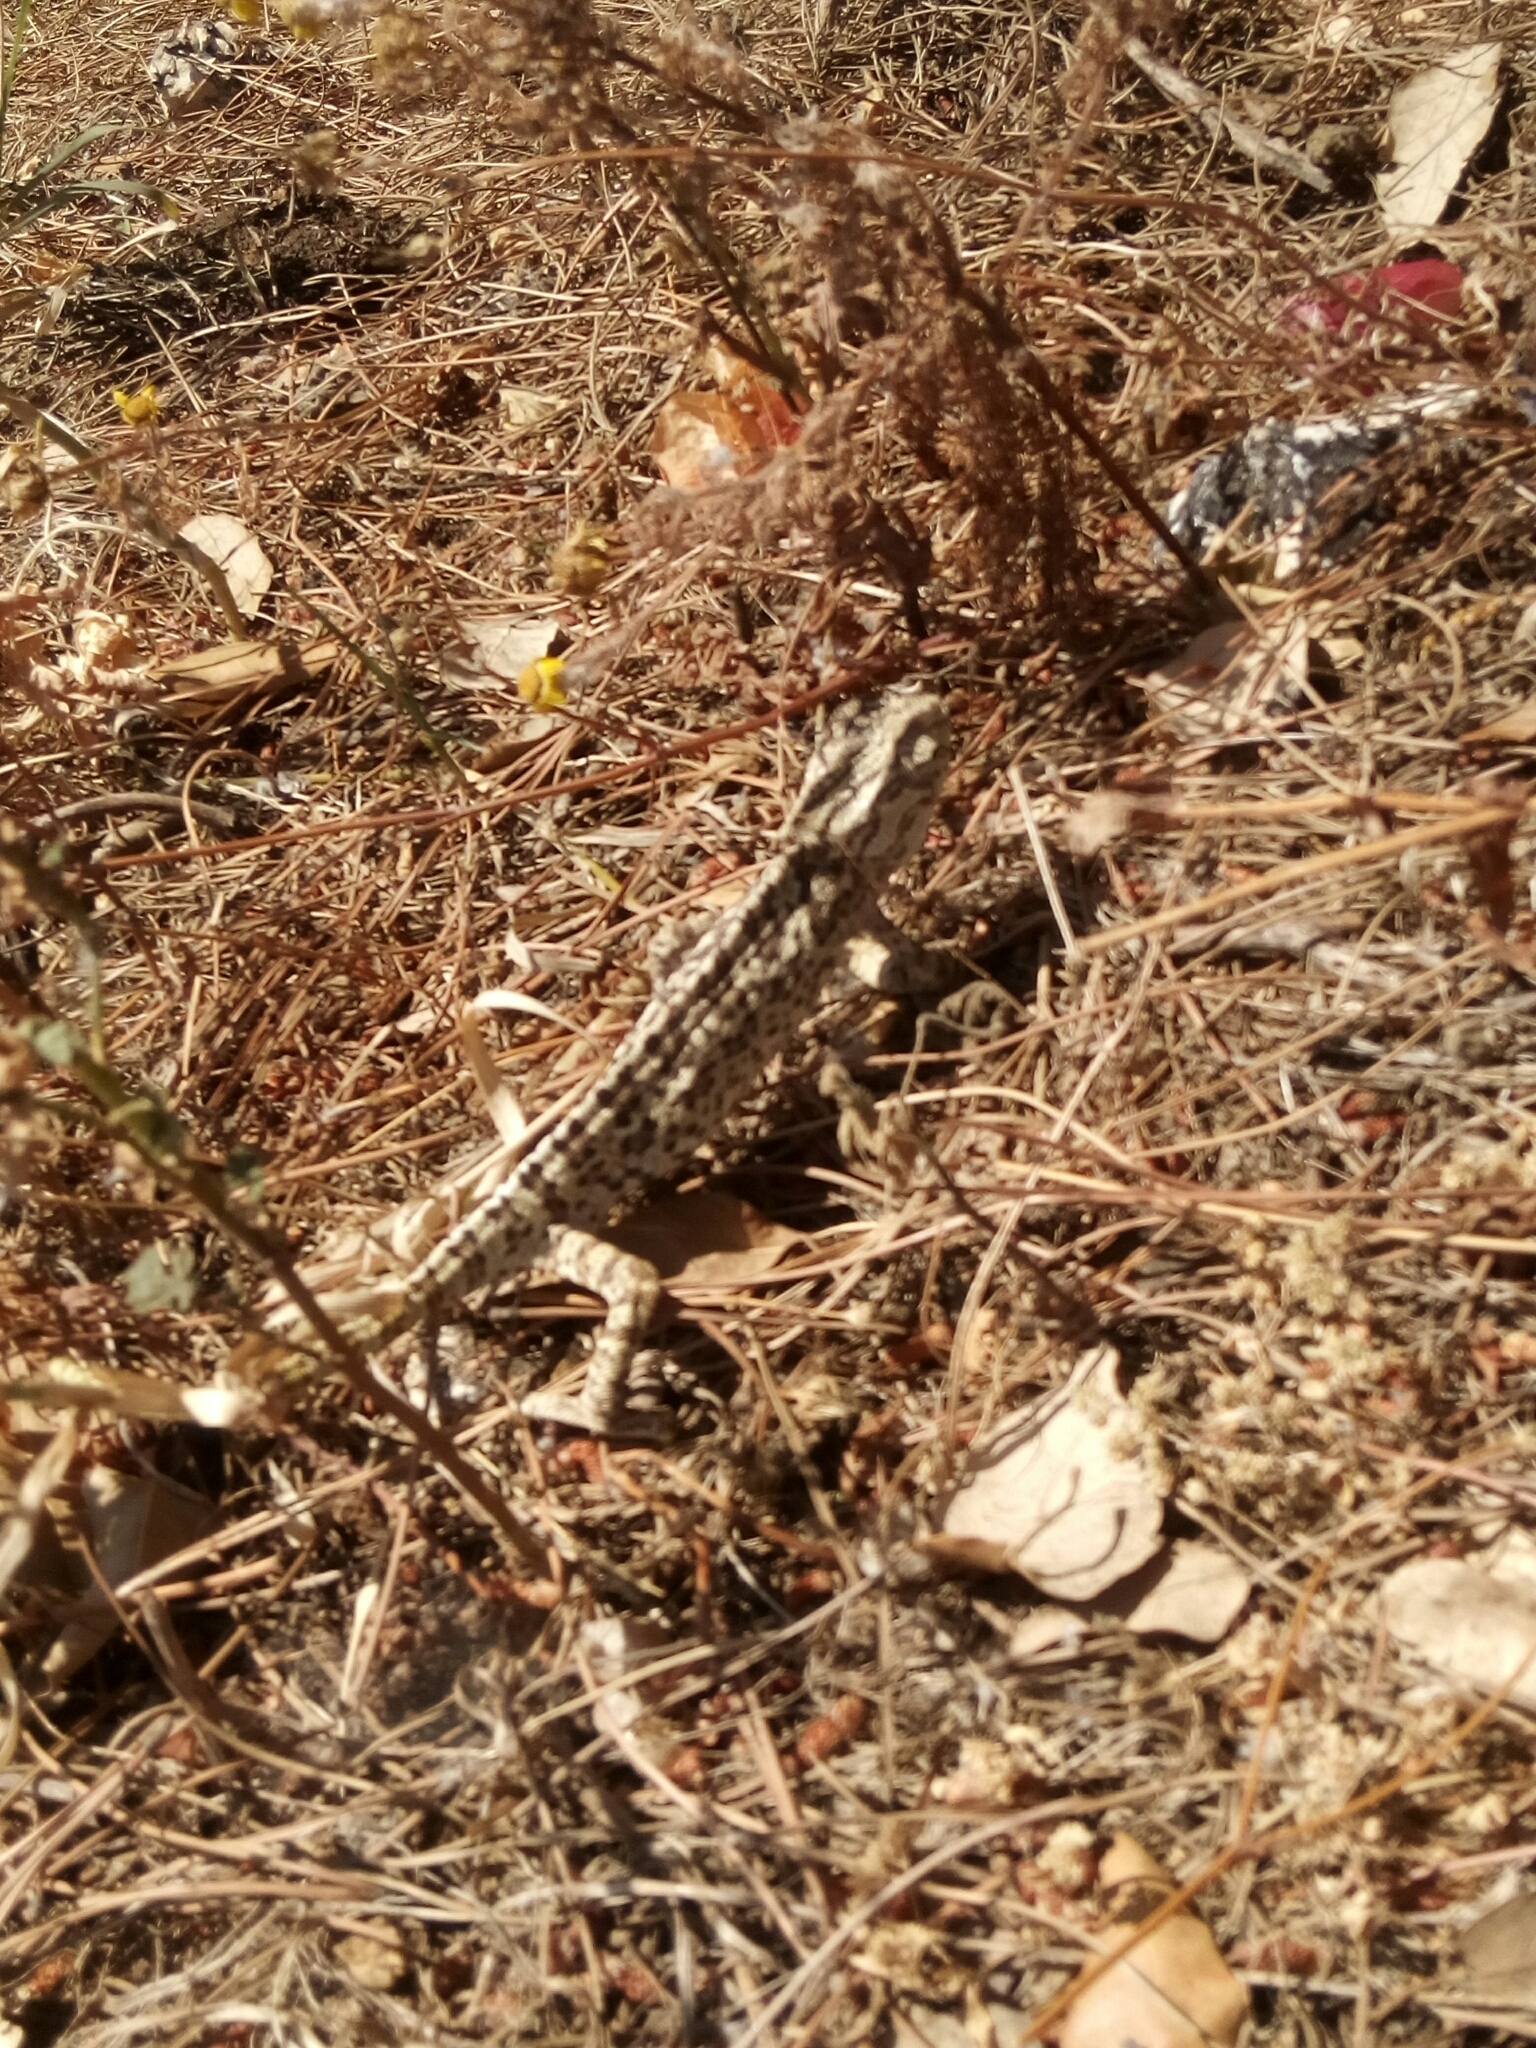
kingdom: Animalia
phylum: Chordata
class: Squamata
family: Chamaeleonidae
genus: Chamaeleo
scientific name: Chamaeleo chamaeleon
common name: Mediterranean chameleon
